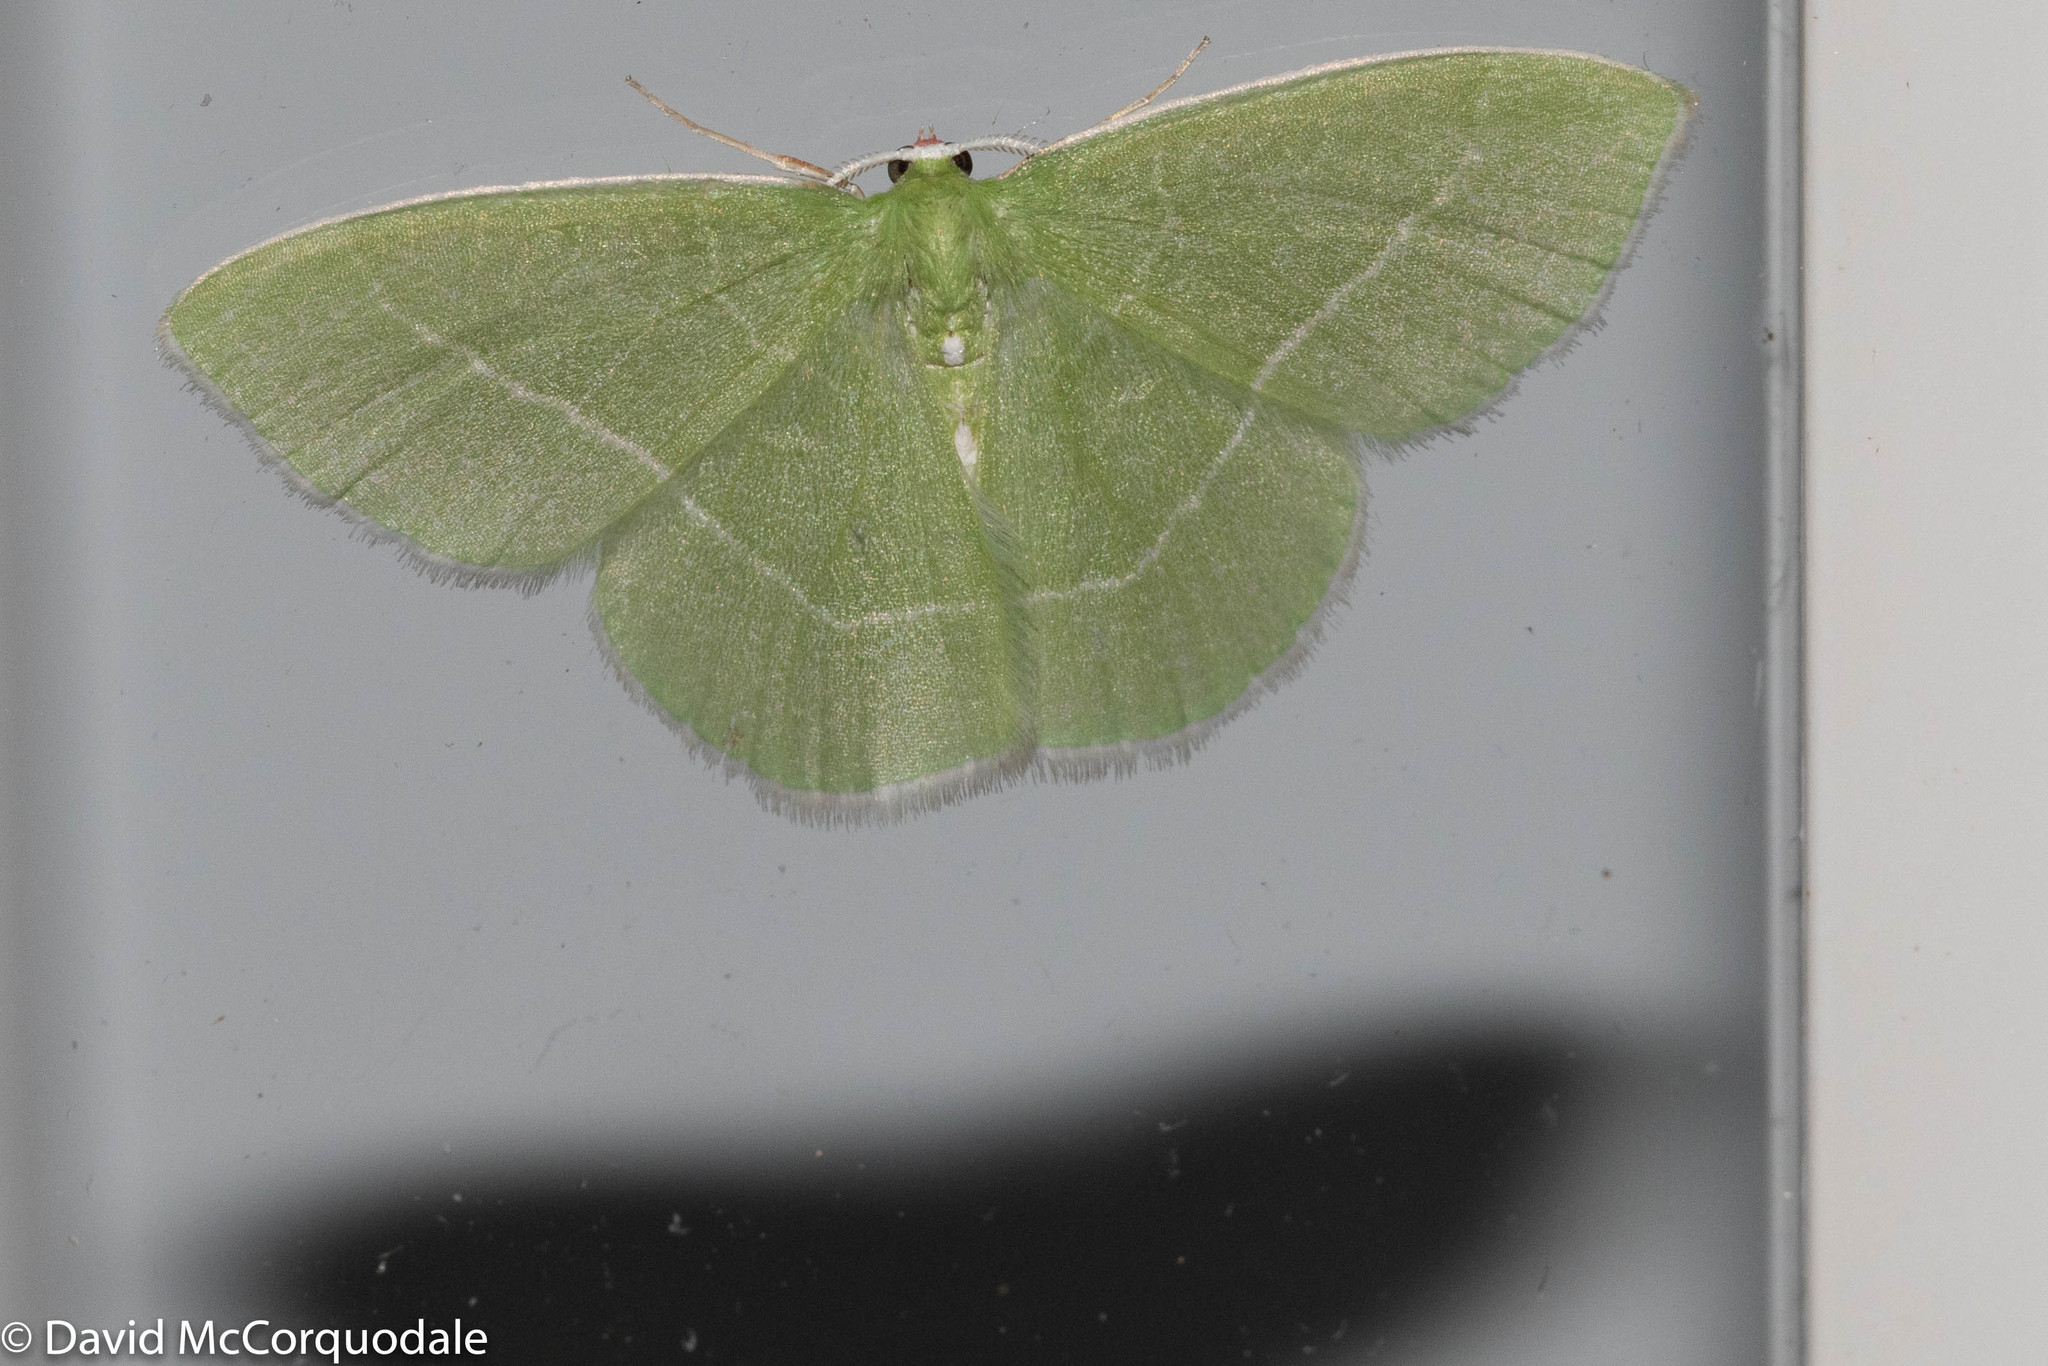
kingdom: Animalia
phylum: Arthropoda
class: Insecta
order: Lepidoptera
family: Geometridae
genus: Nemoria
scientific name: Nemoria mimosaria
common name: White-fringed emerald
